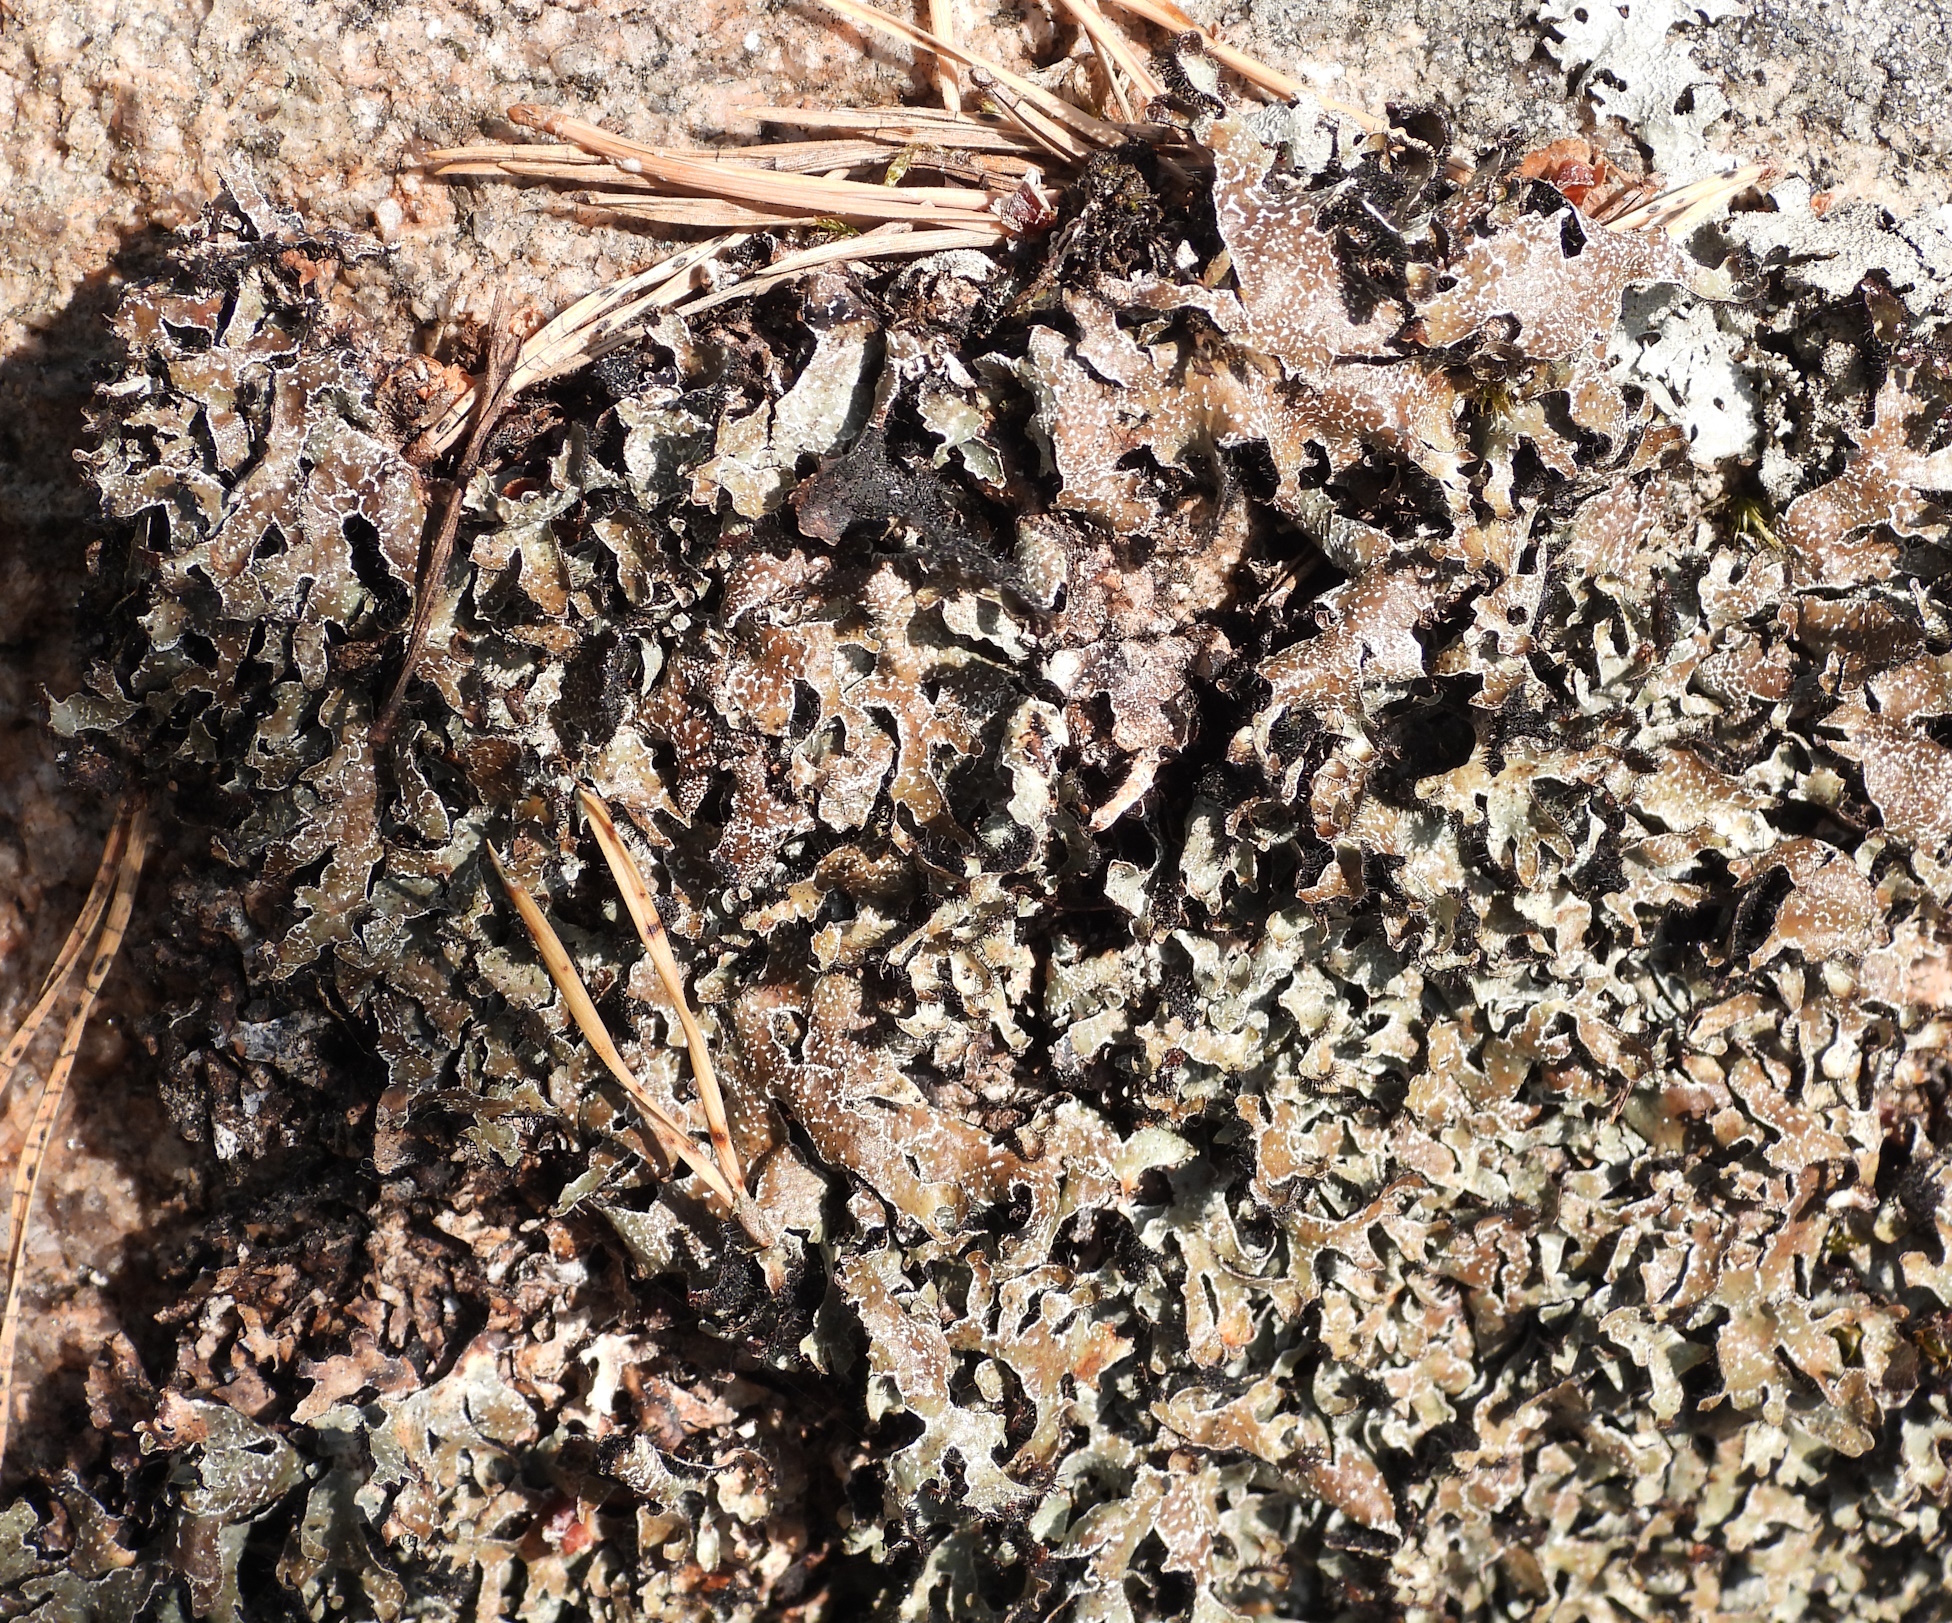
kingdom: Fungi
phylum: Ascomycota
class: Lecanoromycetes
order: Lecanorales
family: Parmeliaceae
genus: Parmelia
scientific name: Parmelia omphalodes
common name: Smoky crottle
